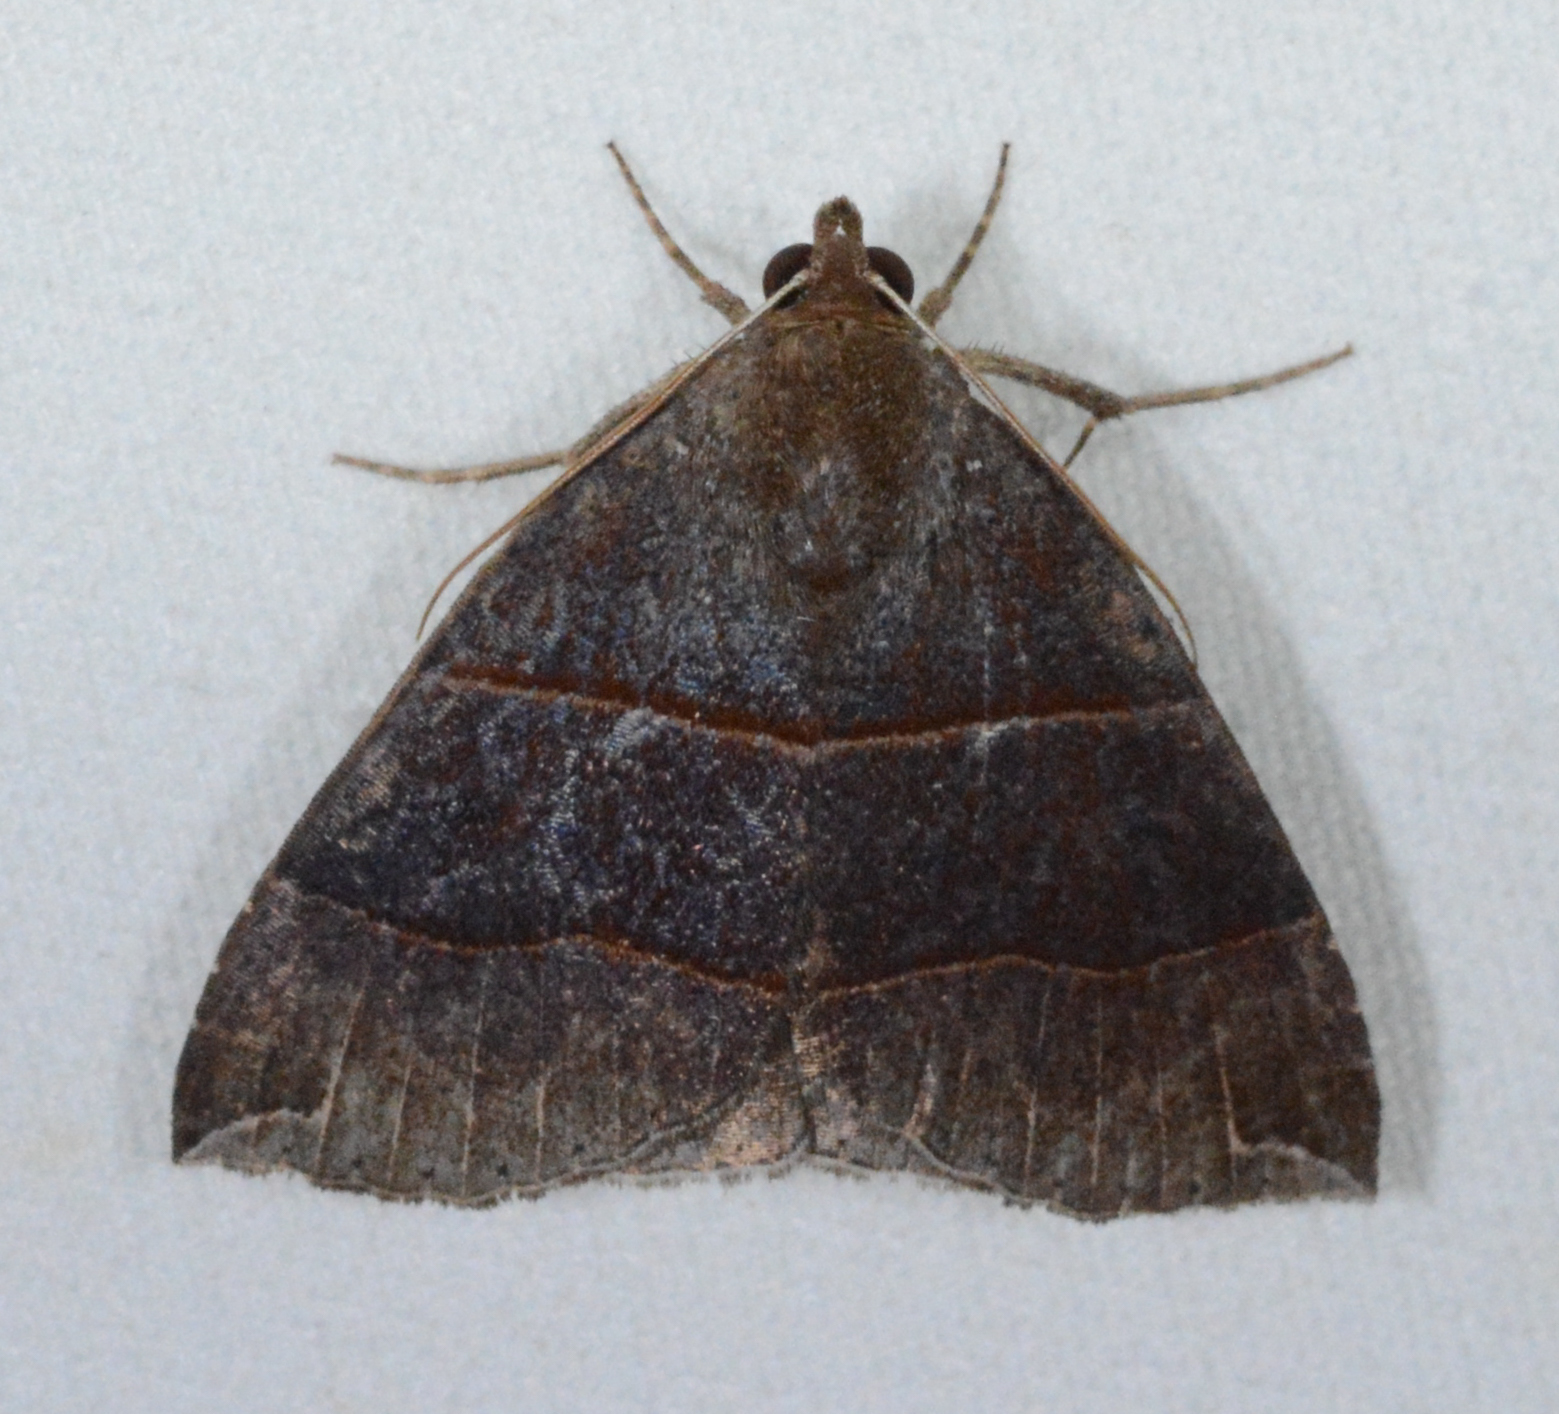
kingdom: Animalia
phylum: Arthropoda
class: Insecta
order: Lepidoptera
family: Erebidae
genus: Parallelia
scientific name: Parallelia bistriaris
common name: Maple looper moth
